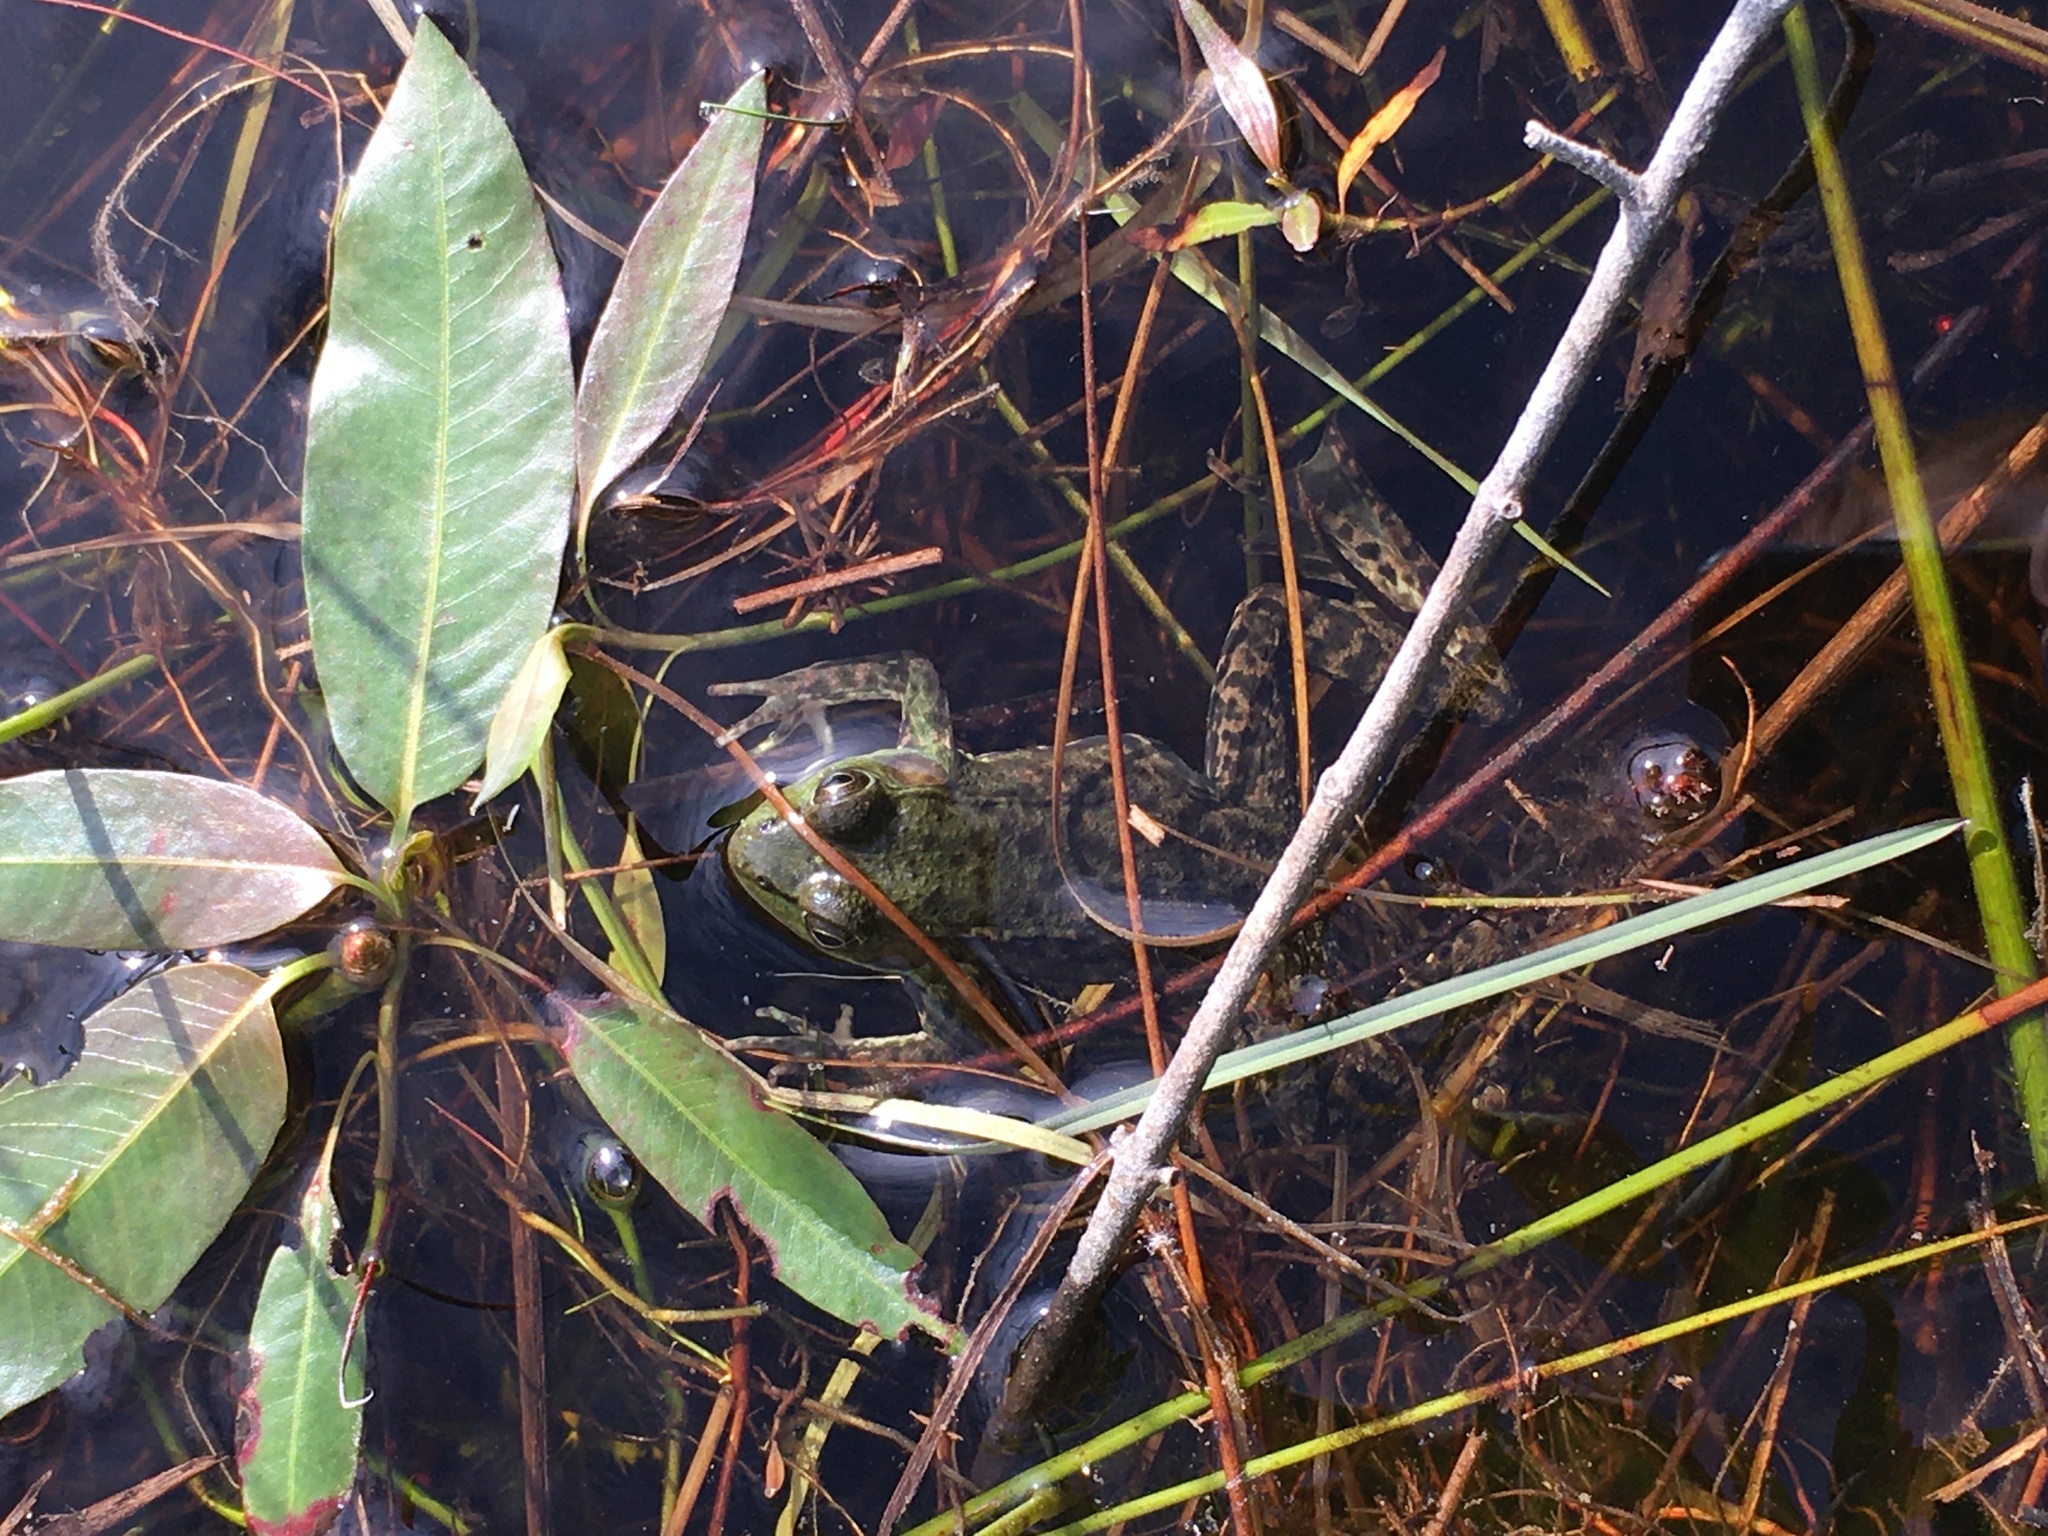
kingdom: Animalia
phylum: Chordata
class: Amphibia
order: Anura
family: Ranidae
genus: Lithobates
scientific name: Lithobates clamitans
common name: Green frog
